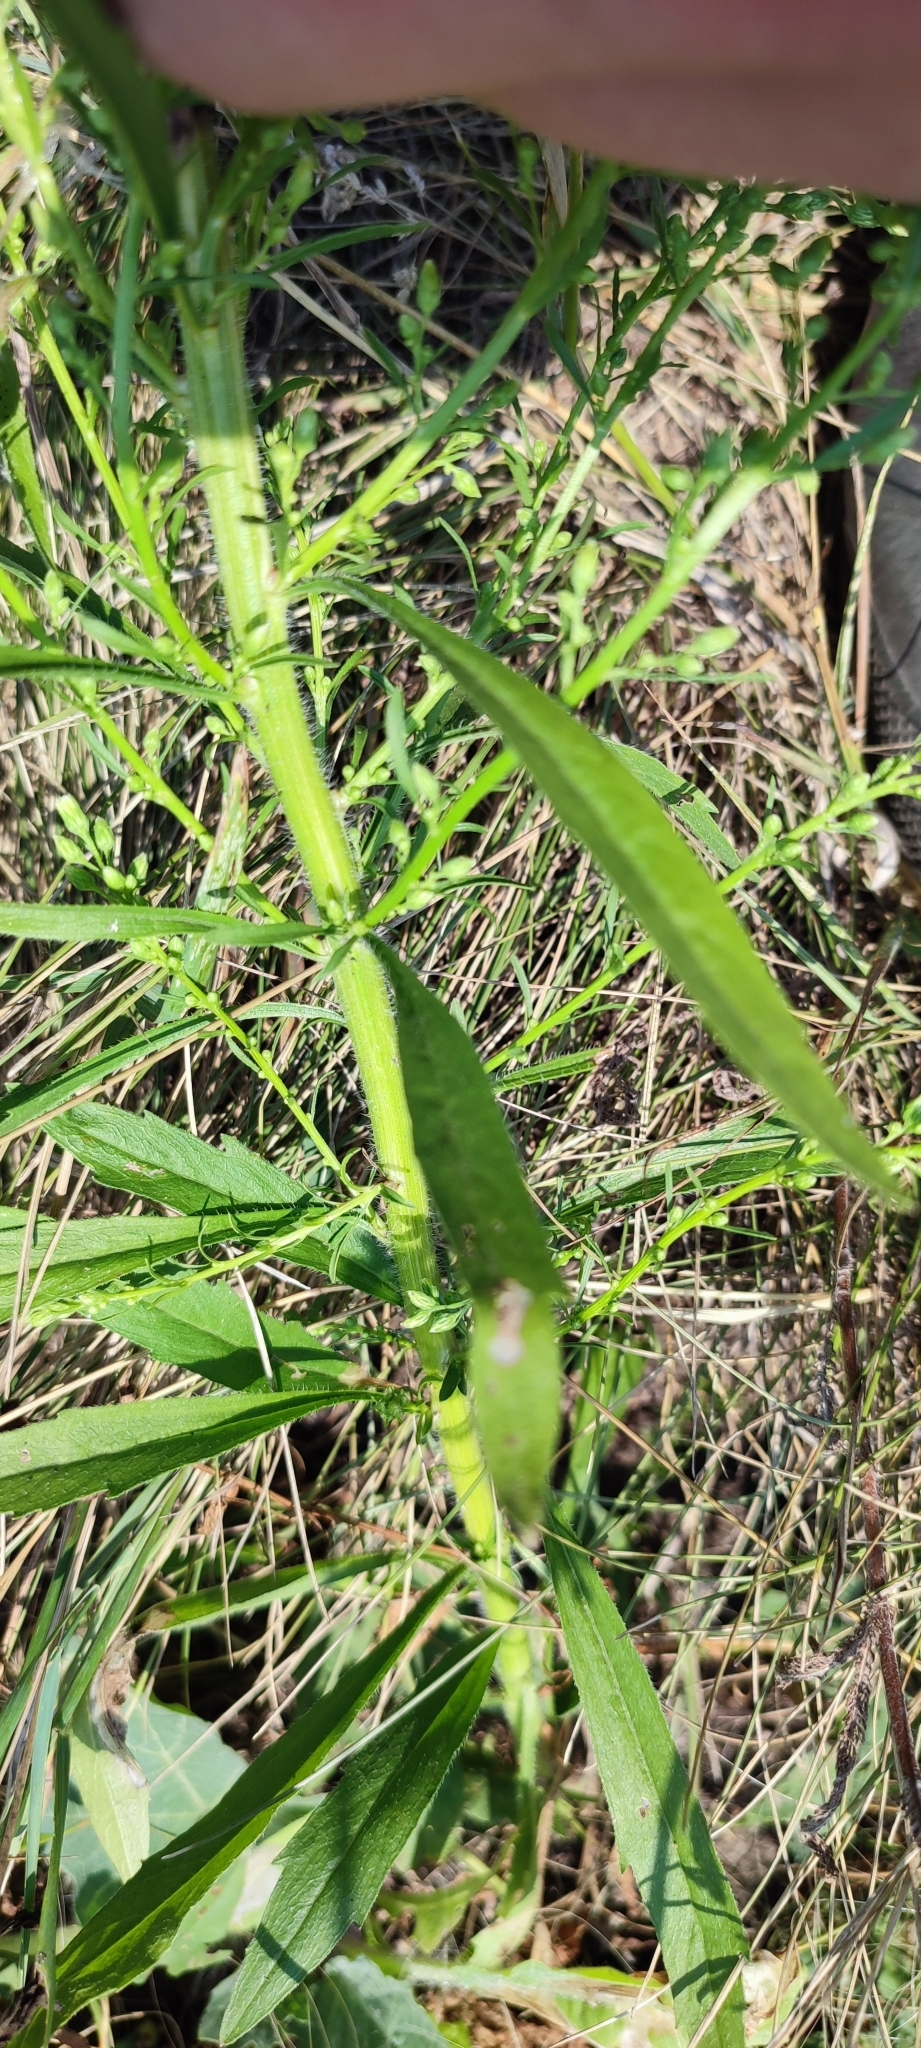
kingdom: Plantae
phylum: Tracheophyta
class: Magnoliopsida
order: Asterales
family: Asteraceae
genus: Erigeron
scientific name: Erigeron canadensis
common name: Canadian fleabane
